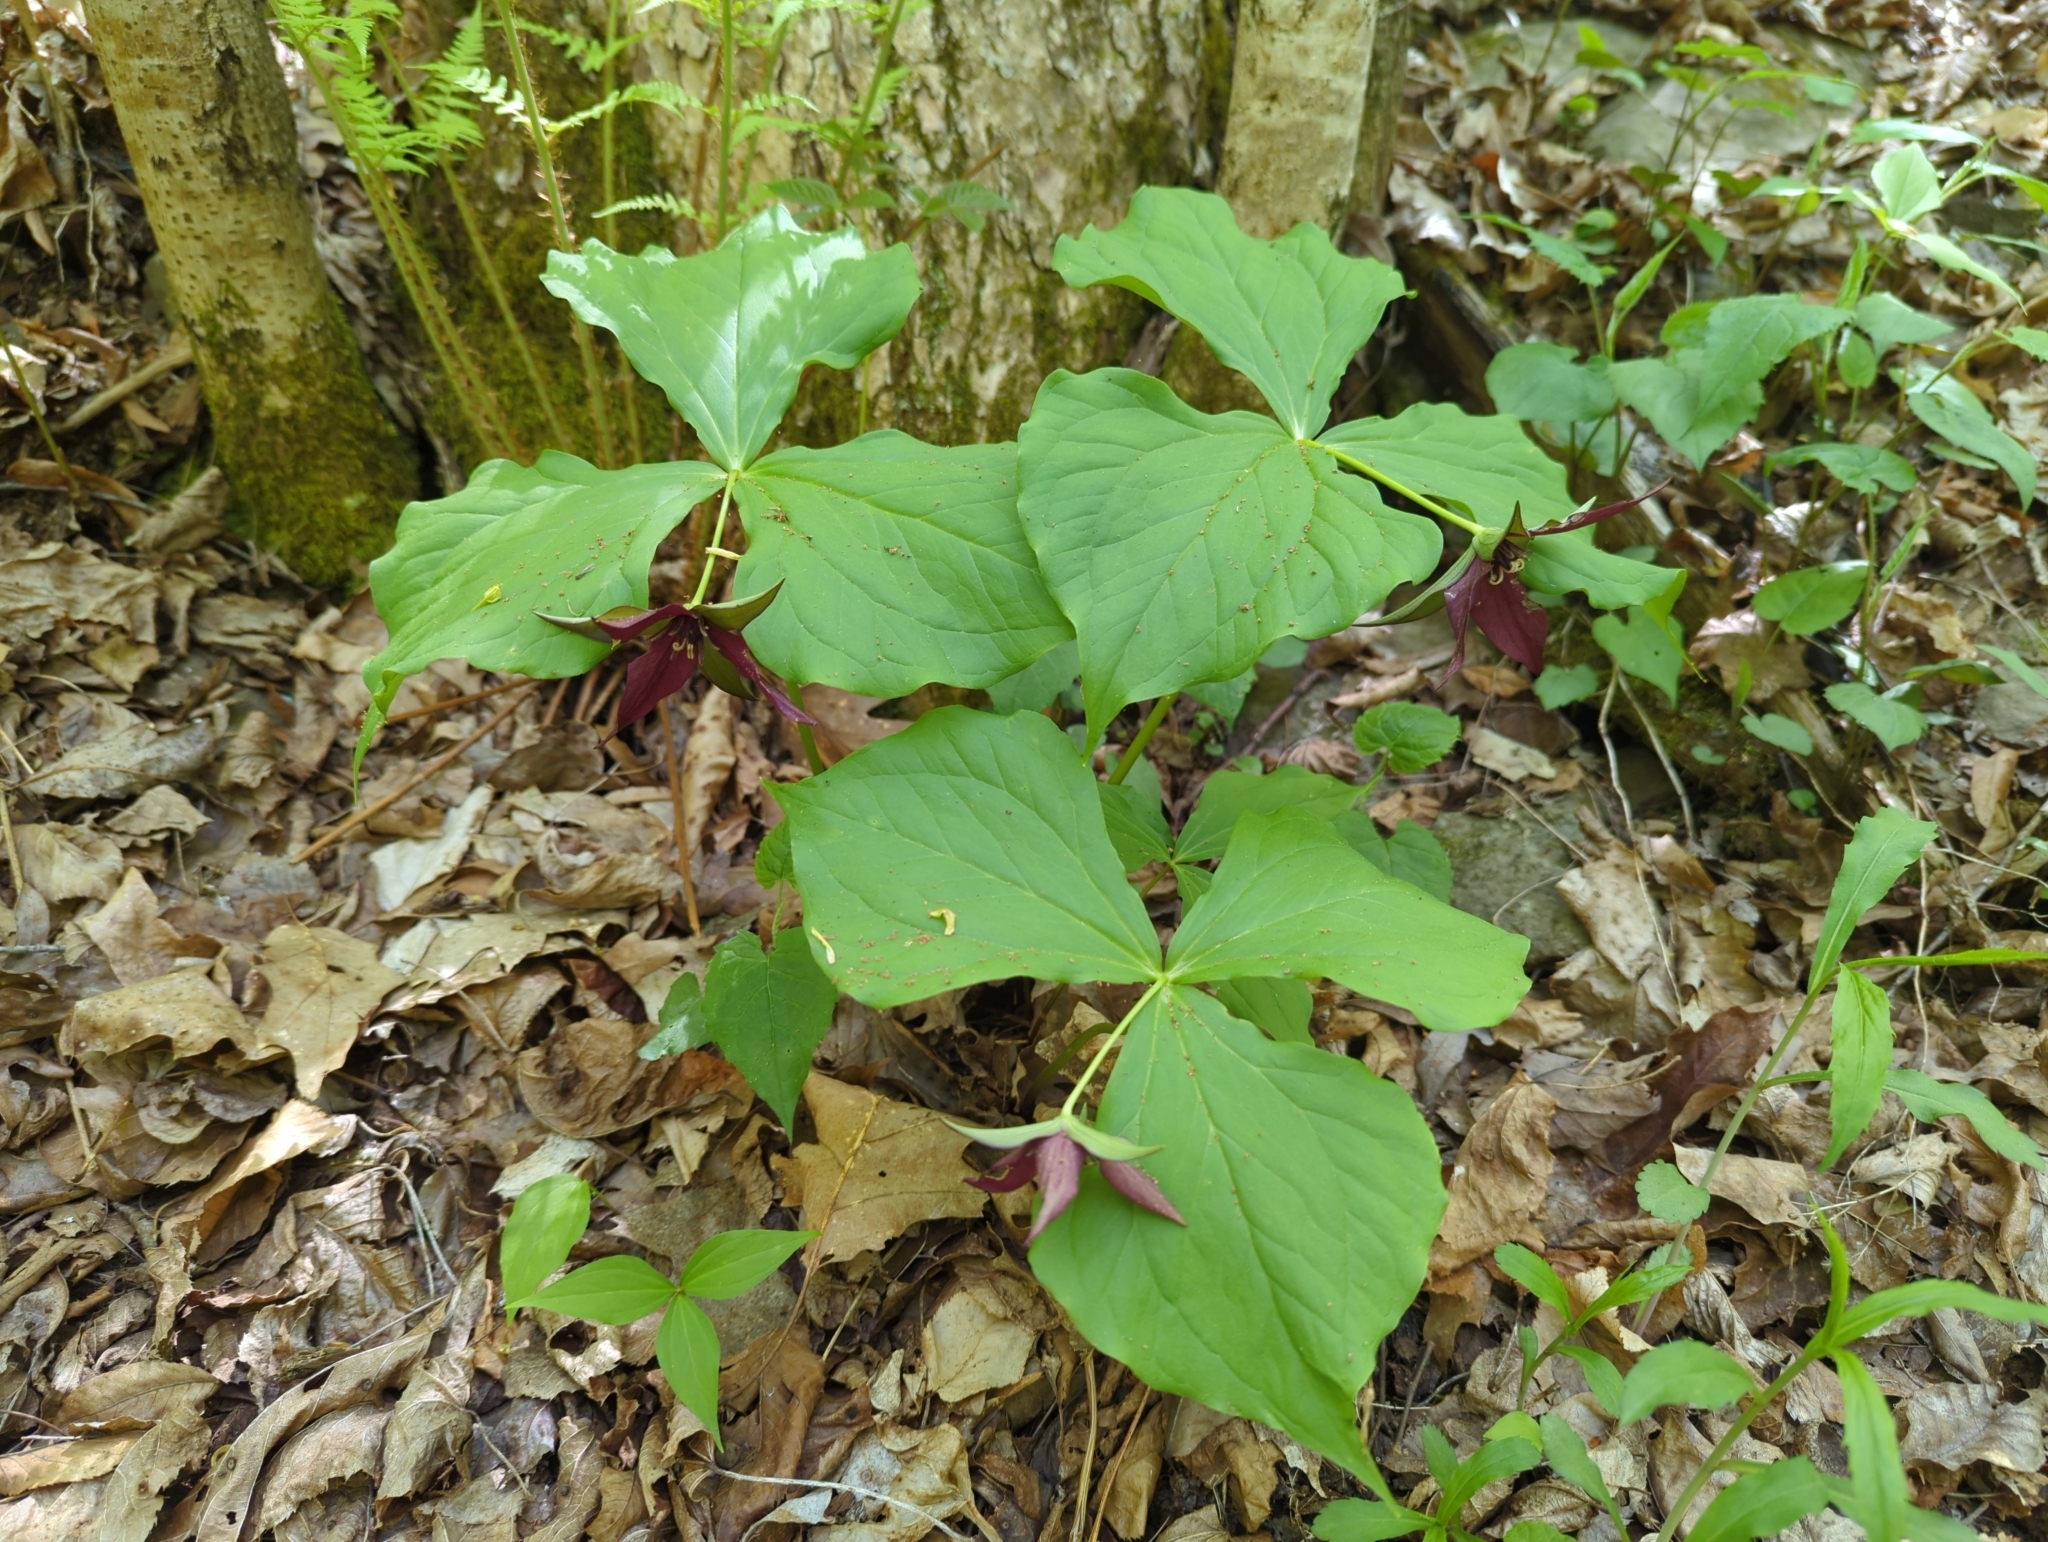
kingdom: Plantae
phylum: Tracheophyta
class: Liliopsida
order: Liliales
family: Melanthiaceae
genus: Trillium
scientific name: Trillium erectum
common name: Purple trillium
